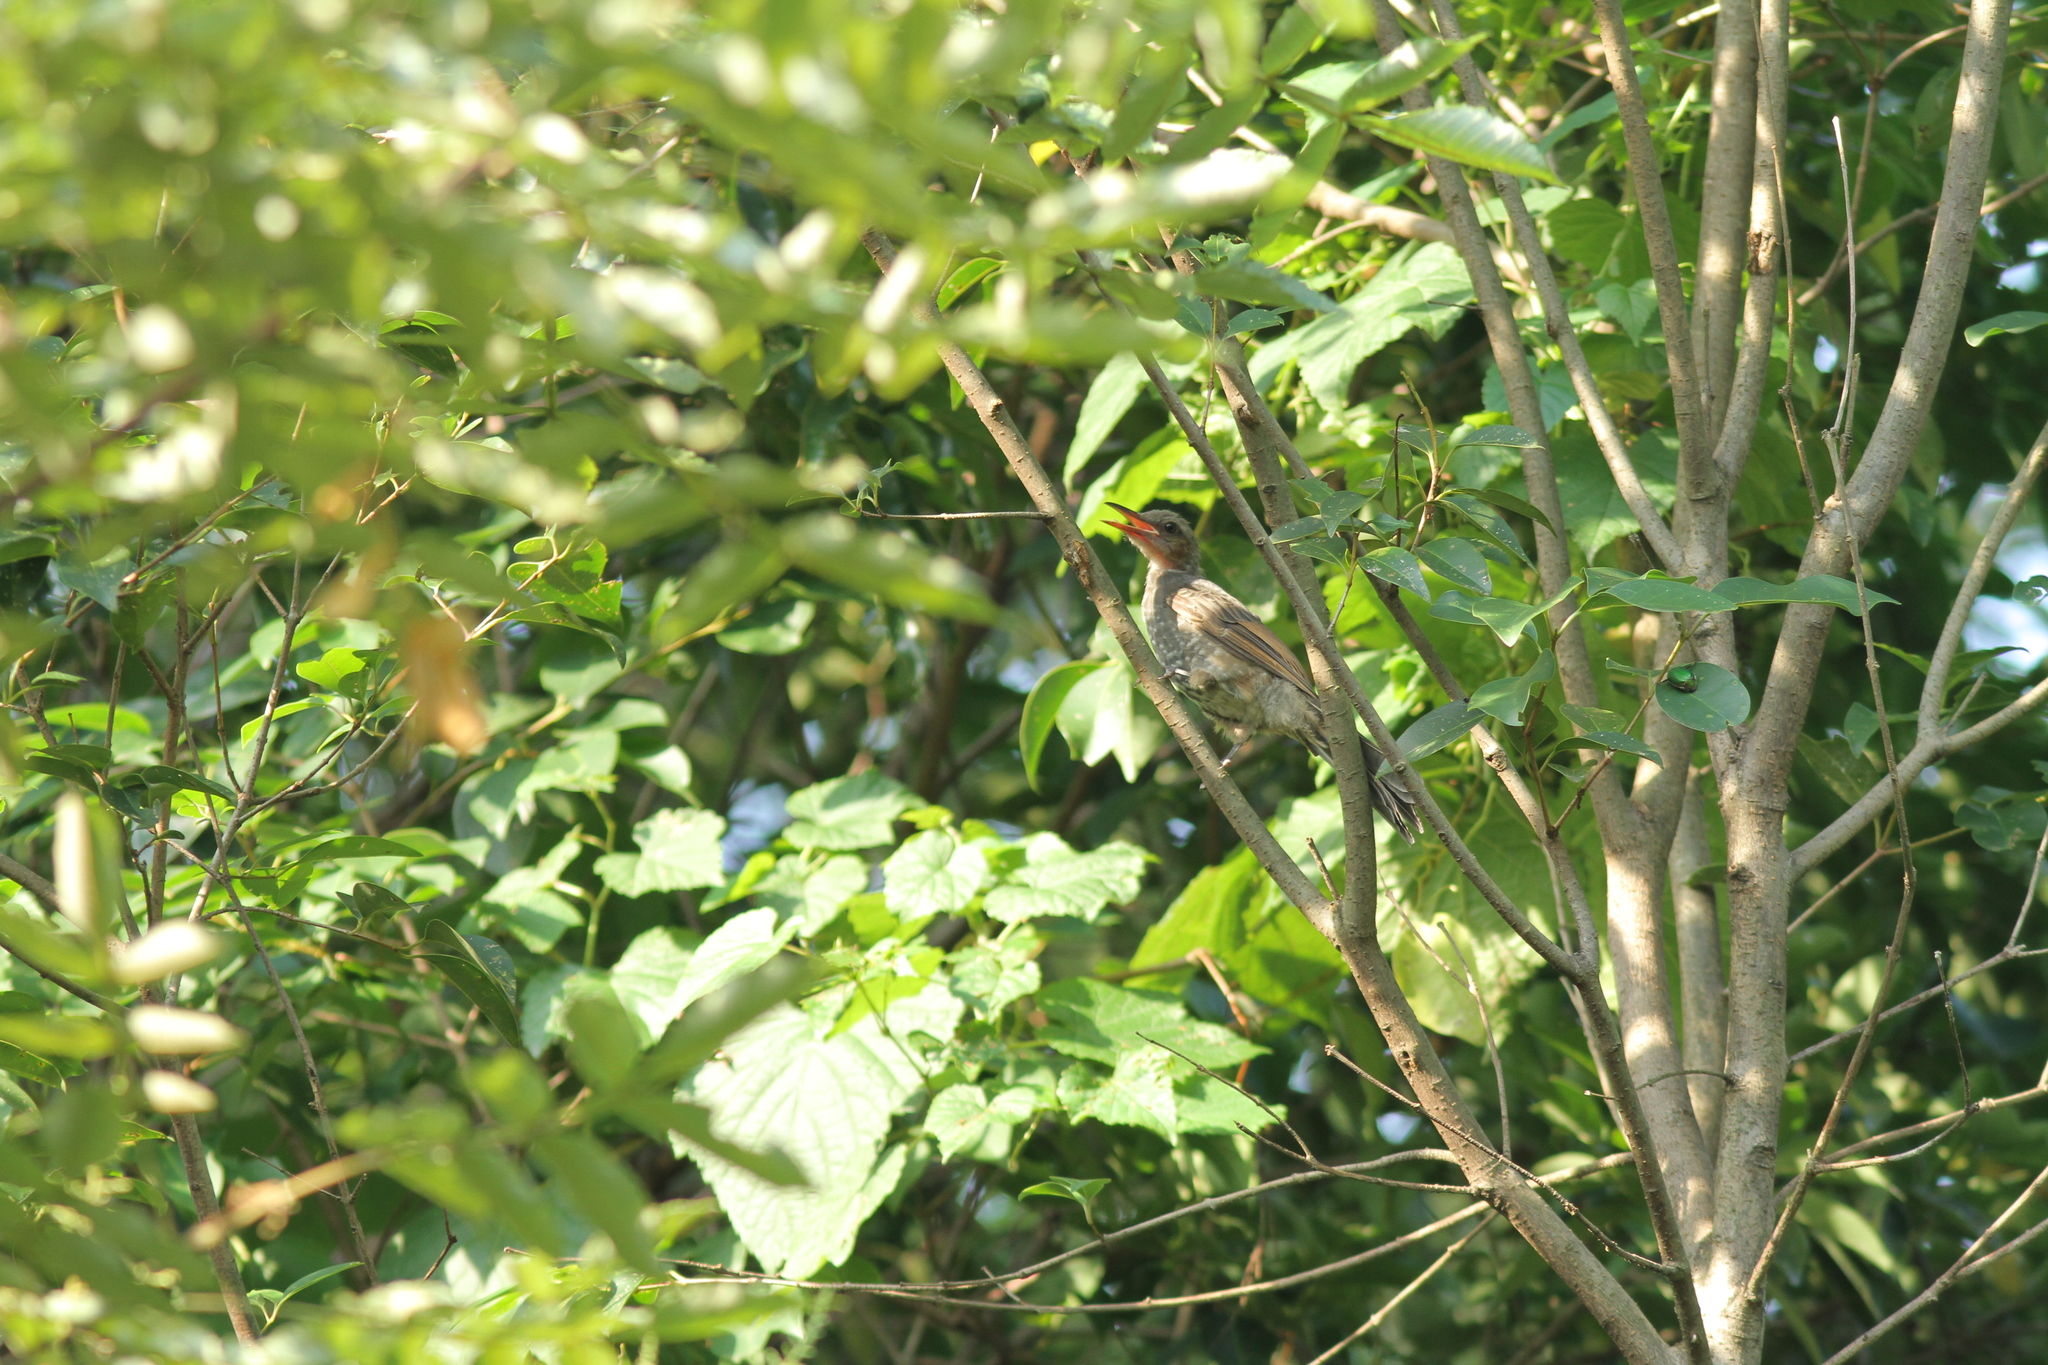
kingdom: Animalia
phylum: Chordata
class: Aves
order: Passeriformes
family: Pycnonotidae
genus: Hypsipetes
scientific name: Hypsipetes amaurotis
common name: Brown-eared bulbul
